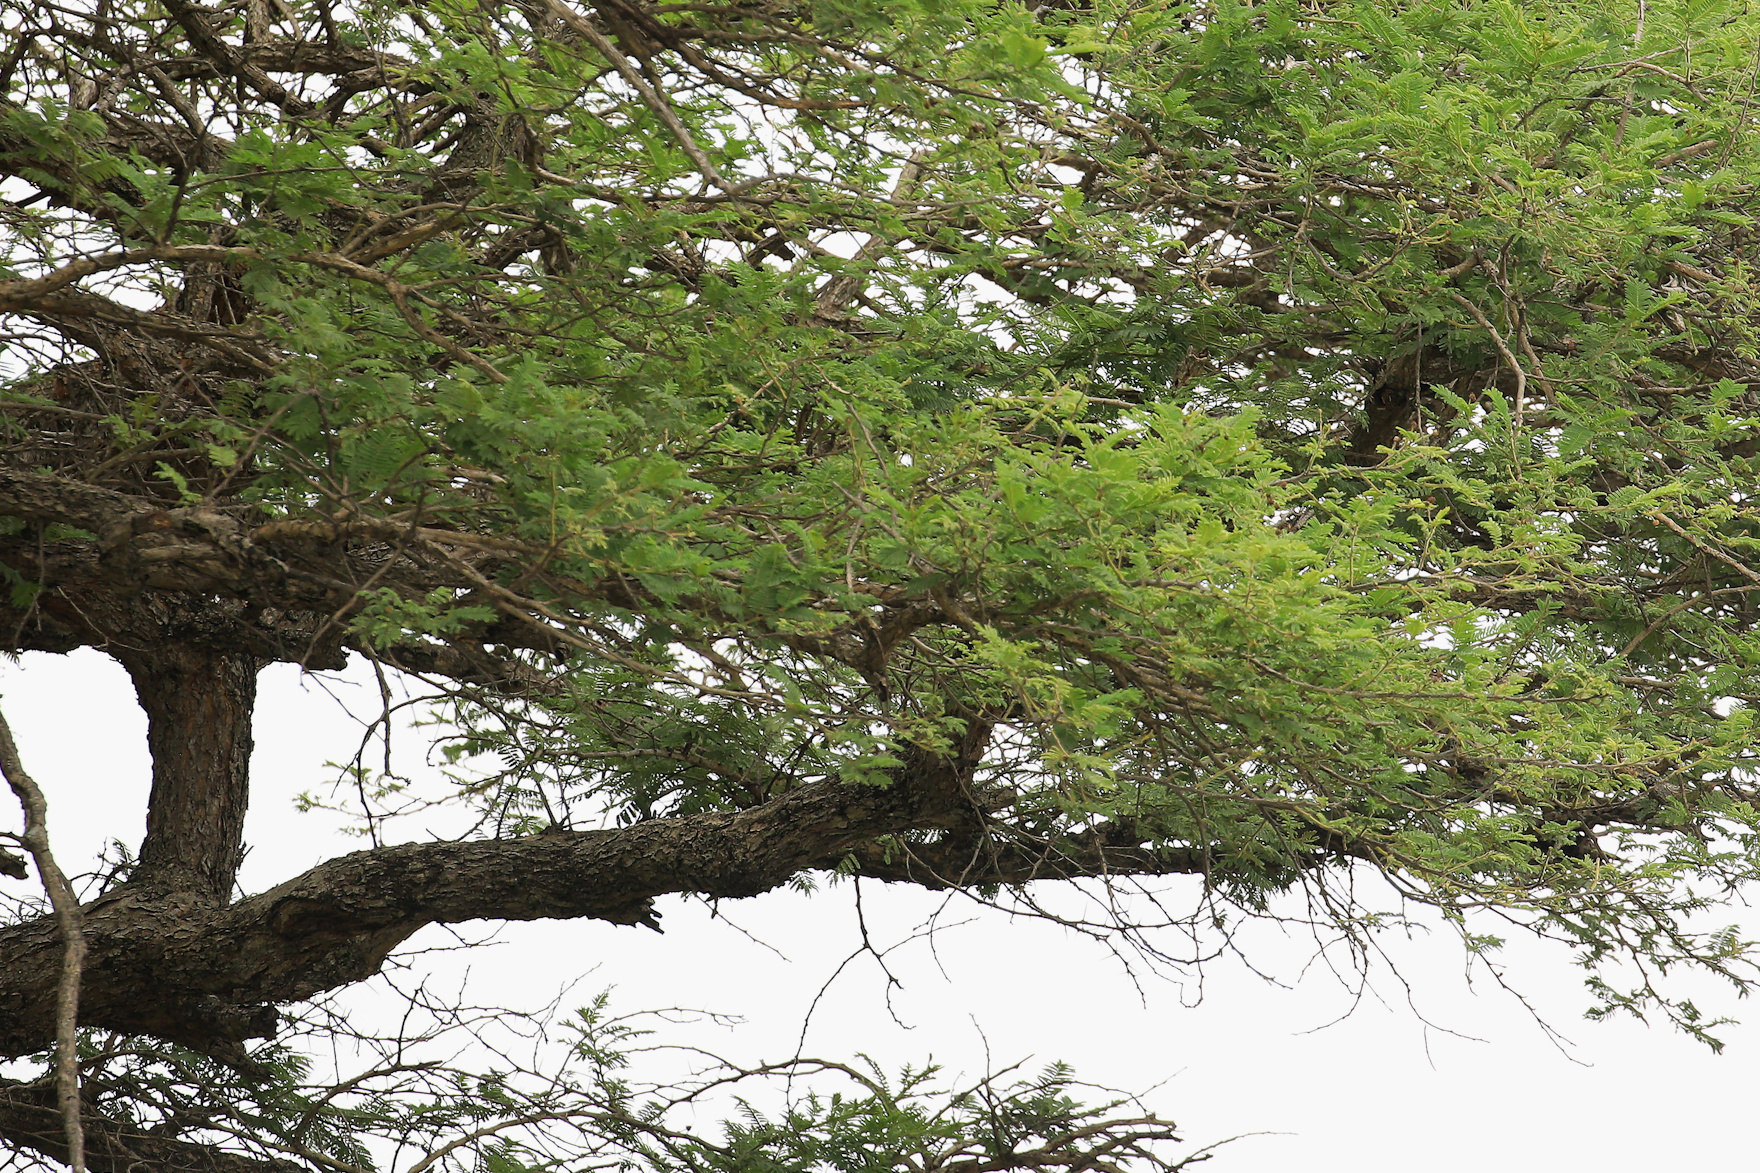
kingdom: Plantae
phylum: Tracheophyta
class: Magnoliopsida
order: Fabales
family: Fabaceae
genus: Vachellia
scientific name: Vachellia sieberiana
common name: Flat-topped thorn
